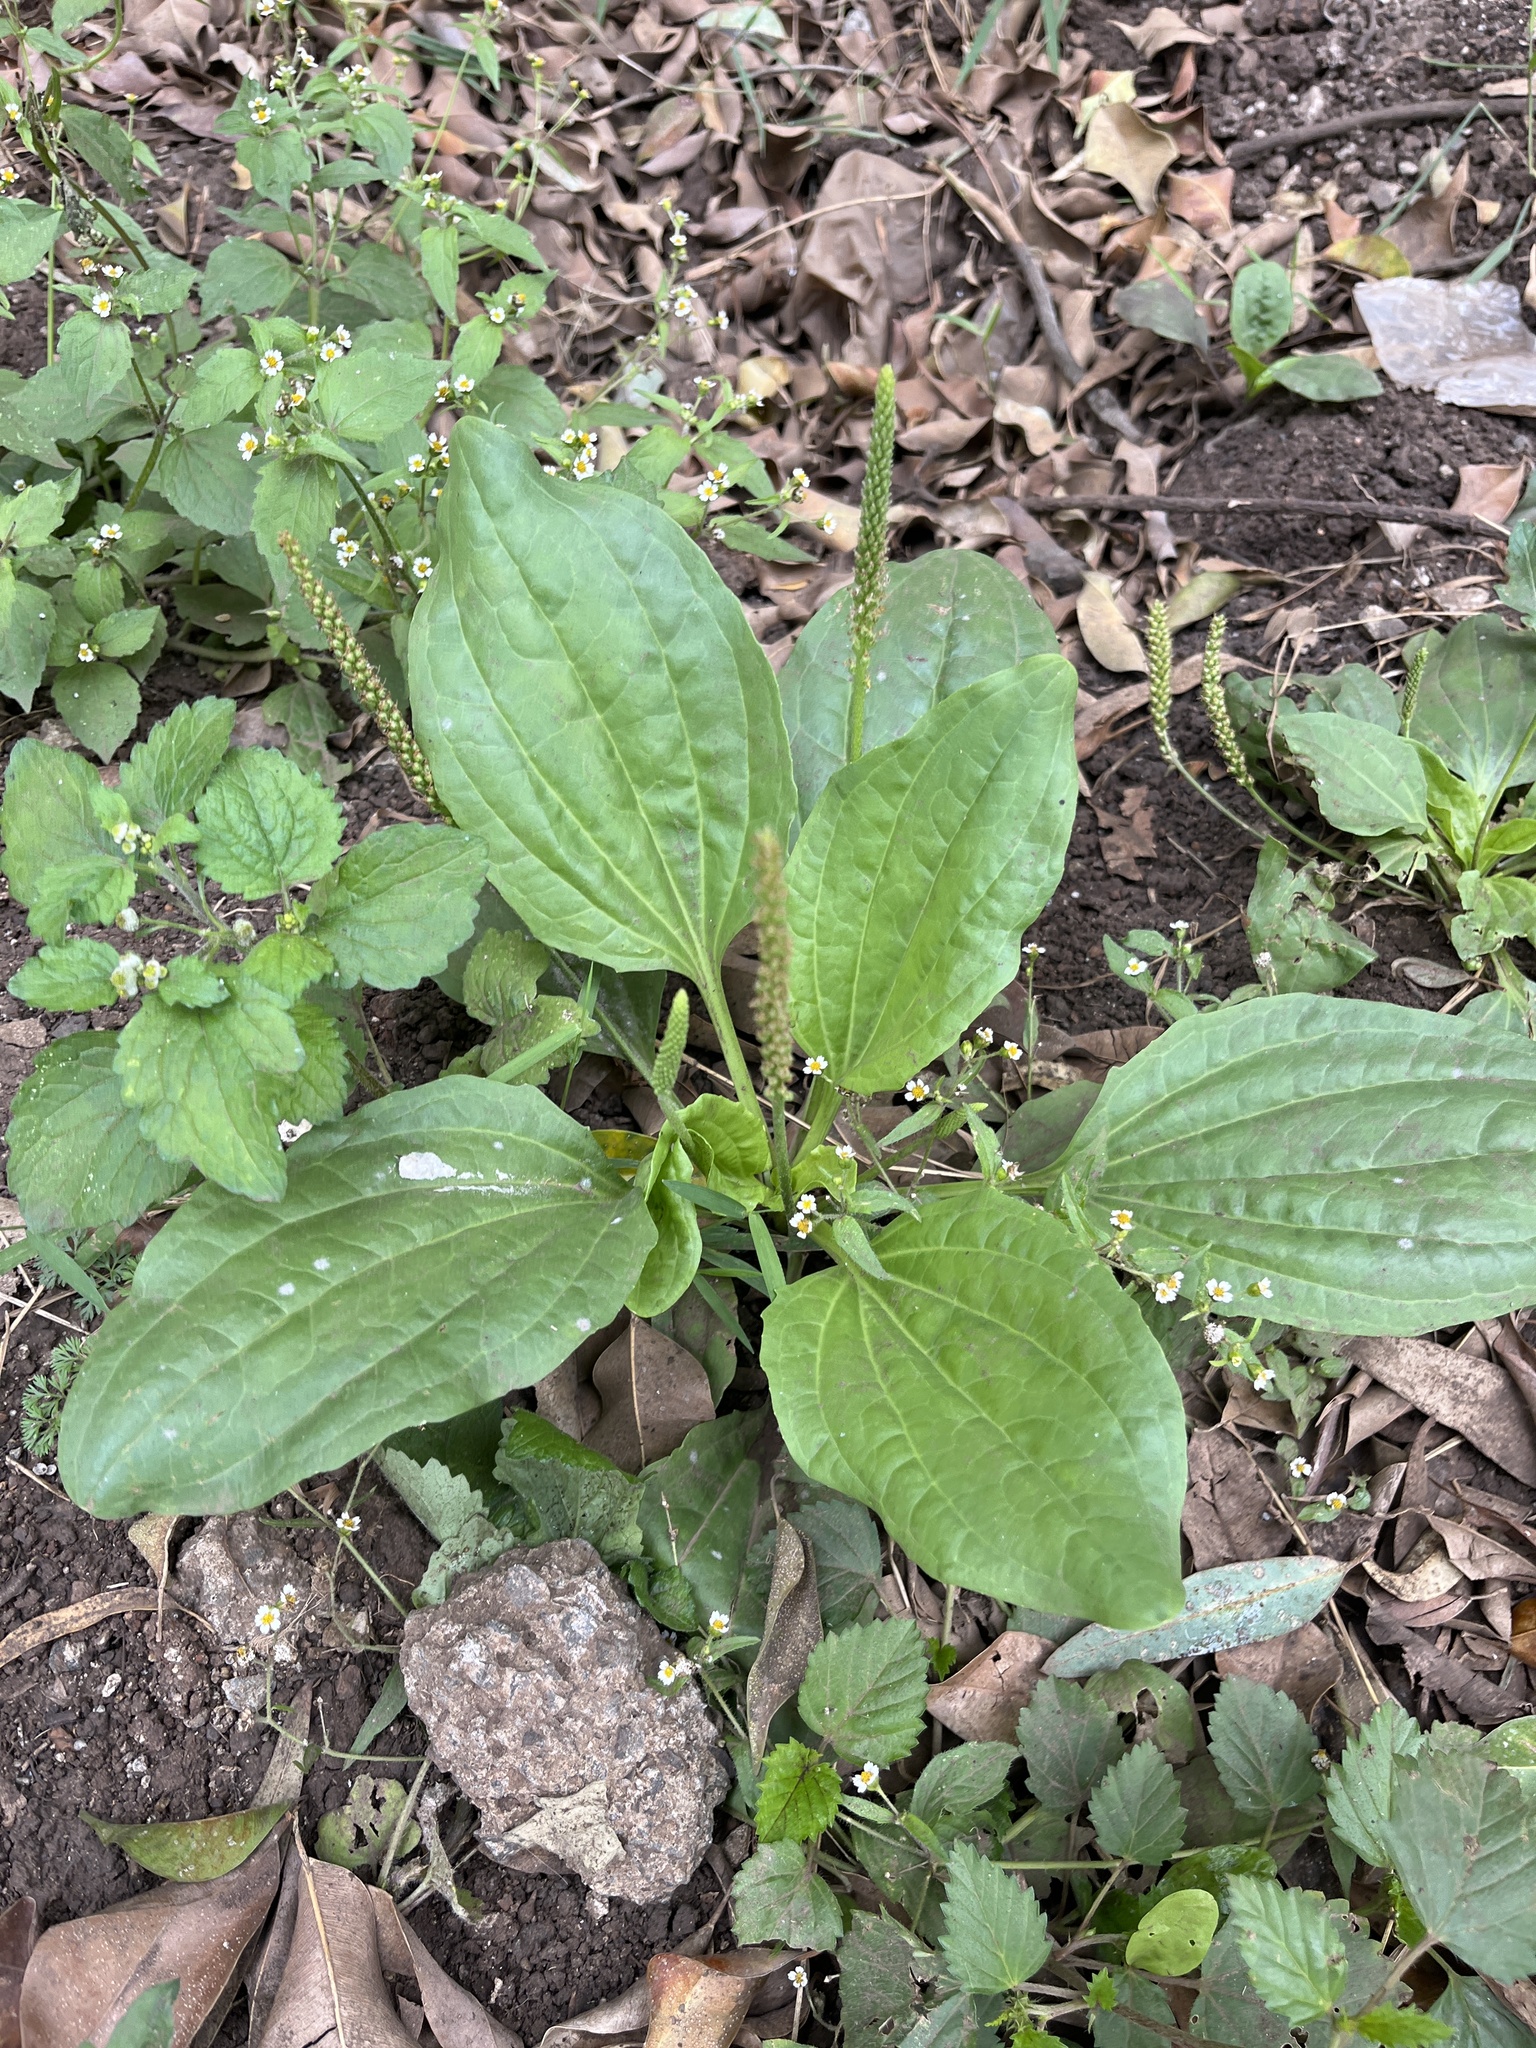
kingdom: Plantae
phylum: Tracheophyta
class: Magnoliopsida
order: Lamiales
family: Plantaginaceae
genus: Plantago
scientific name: Plantago major
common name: Common plantain
